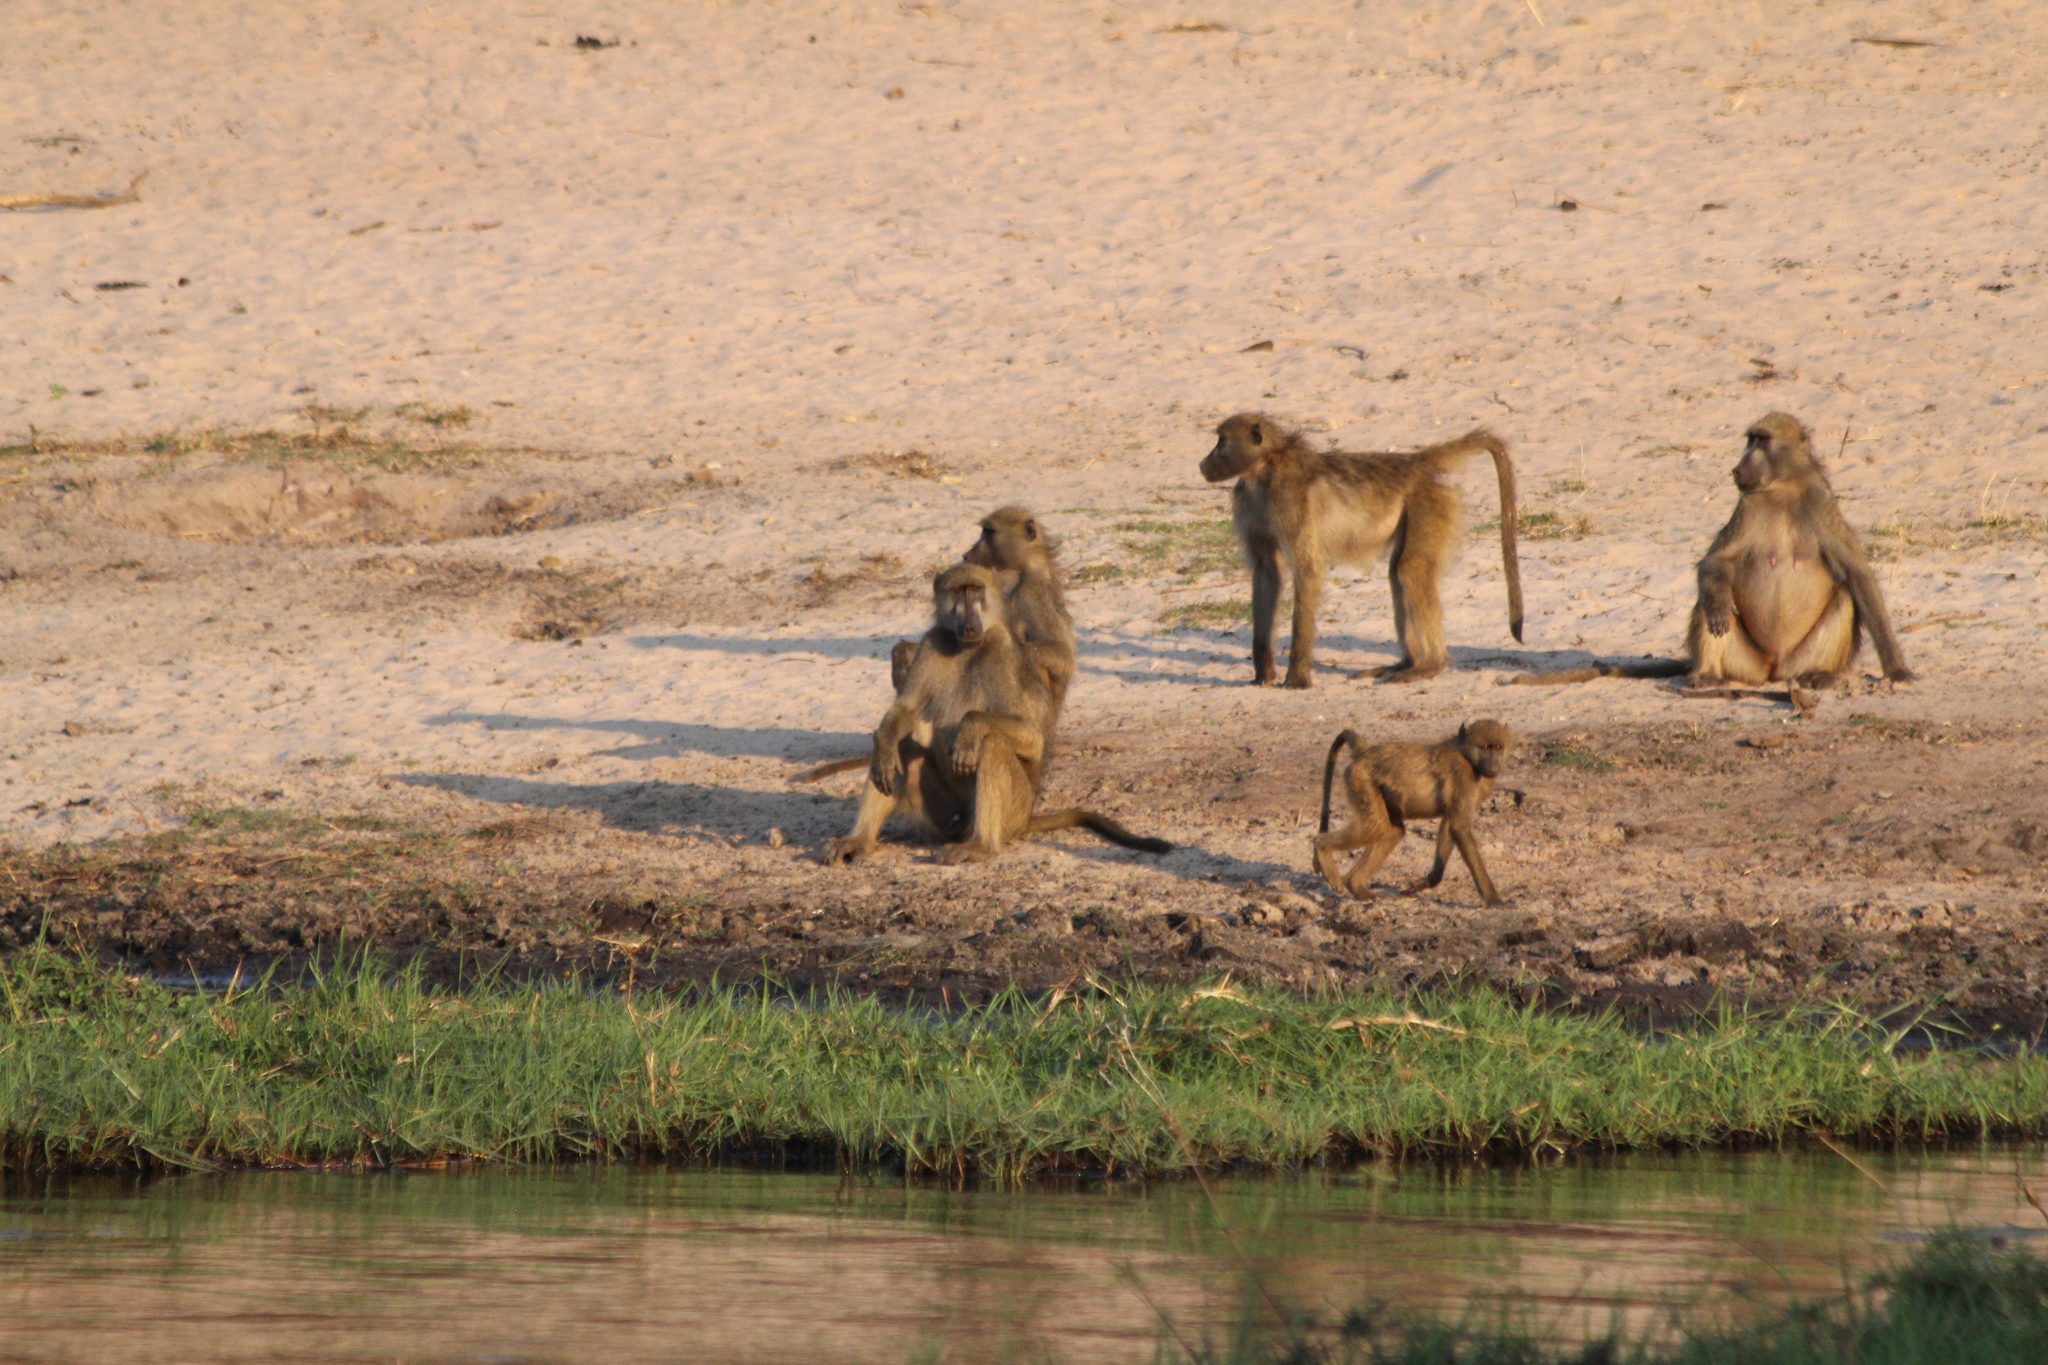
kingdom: Animalia
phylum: Chordata
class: Mammalia
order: Primates
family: Cercopithecidae
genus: Papio
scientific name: Papio ursinus
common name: Chacma baboon
